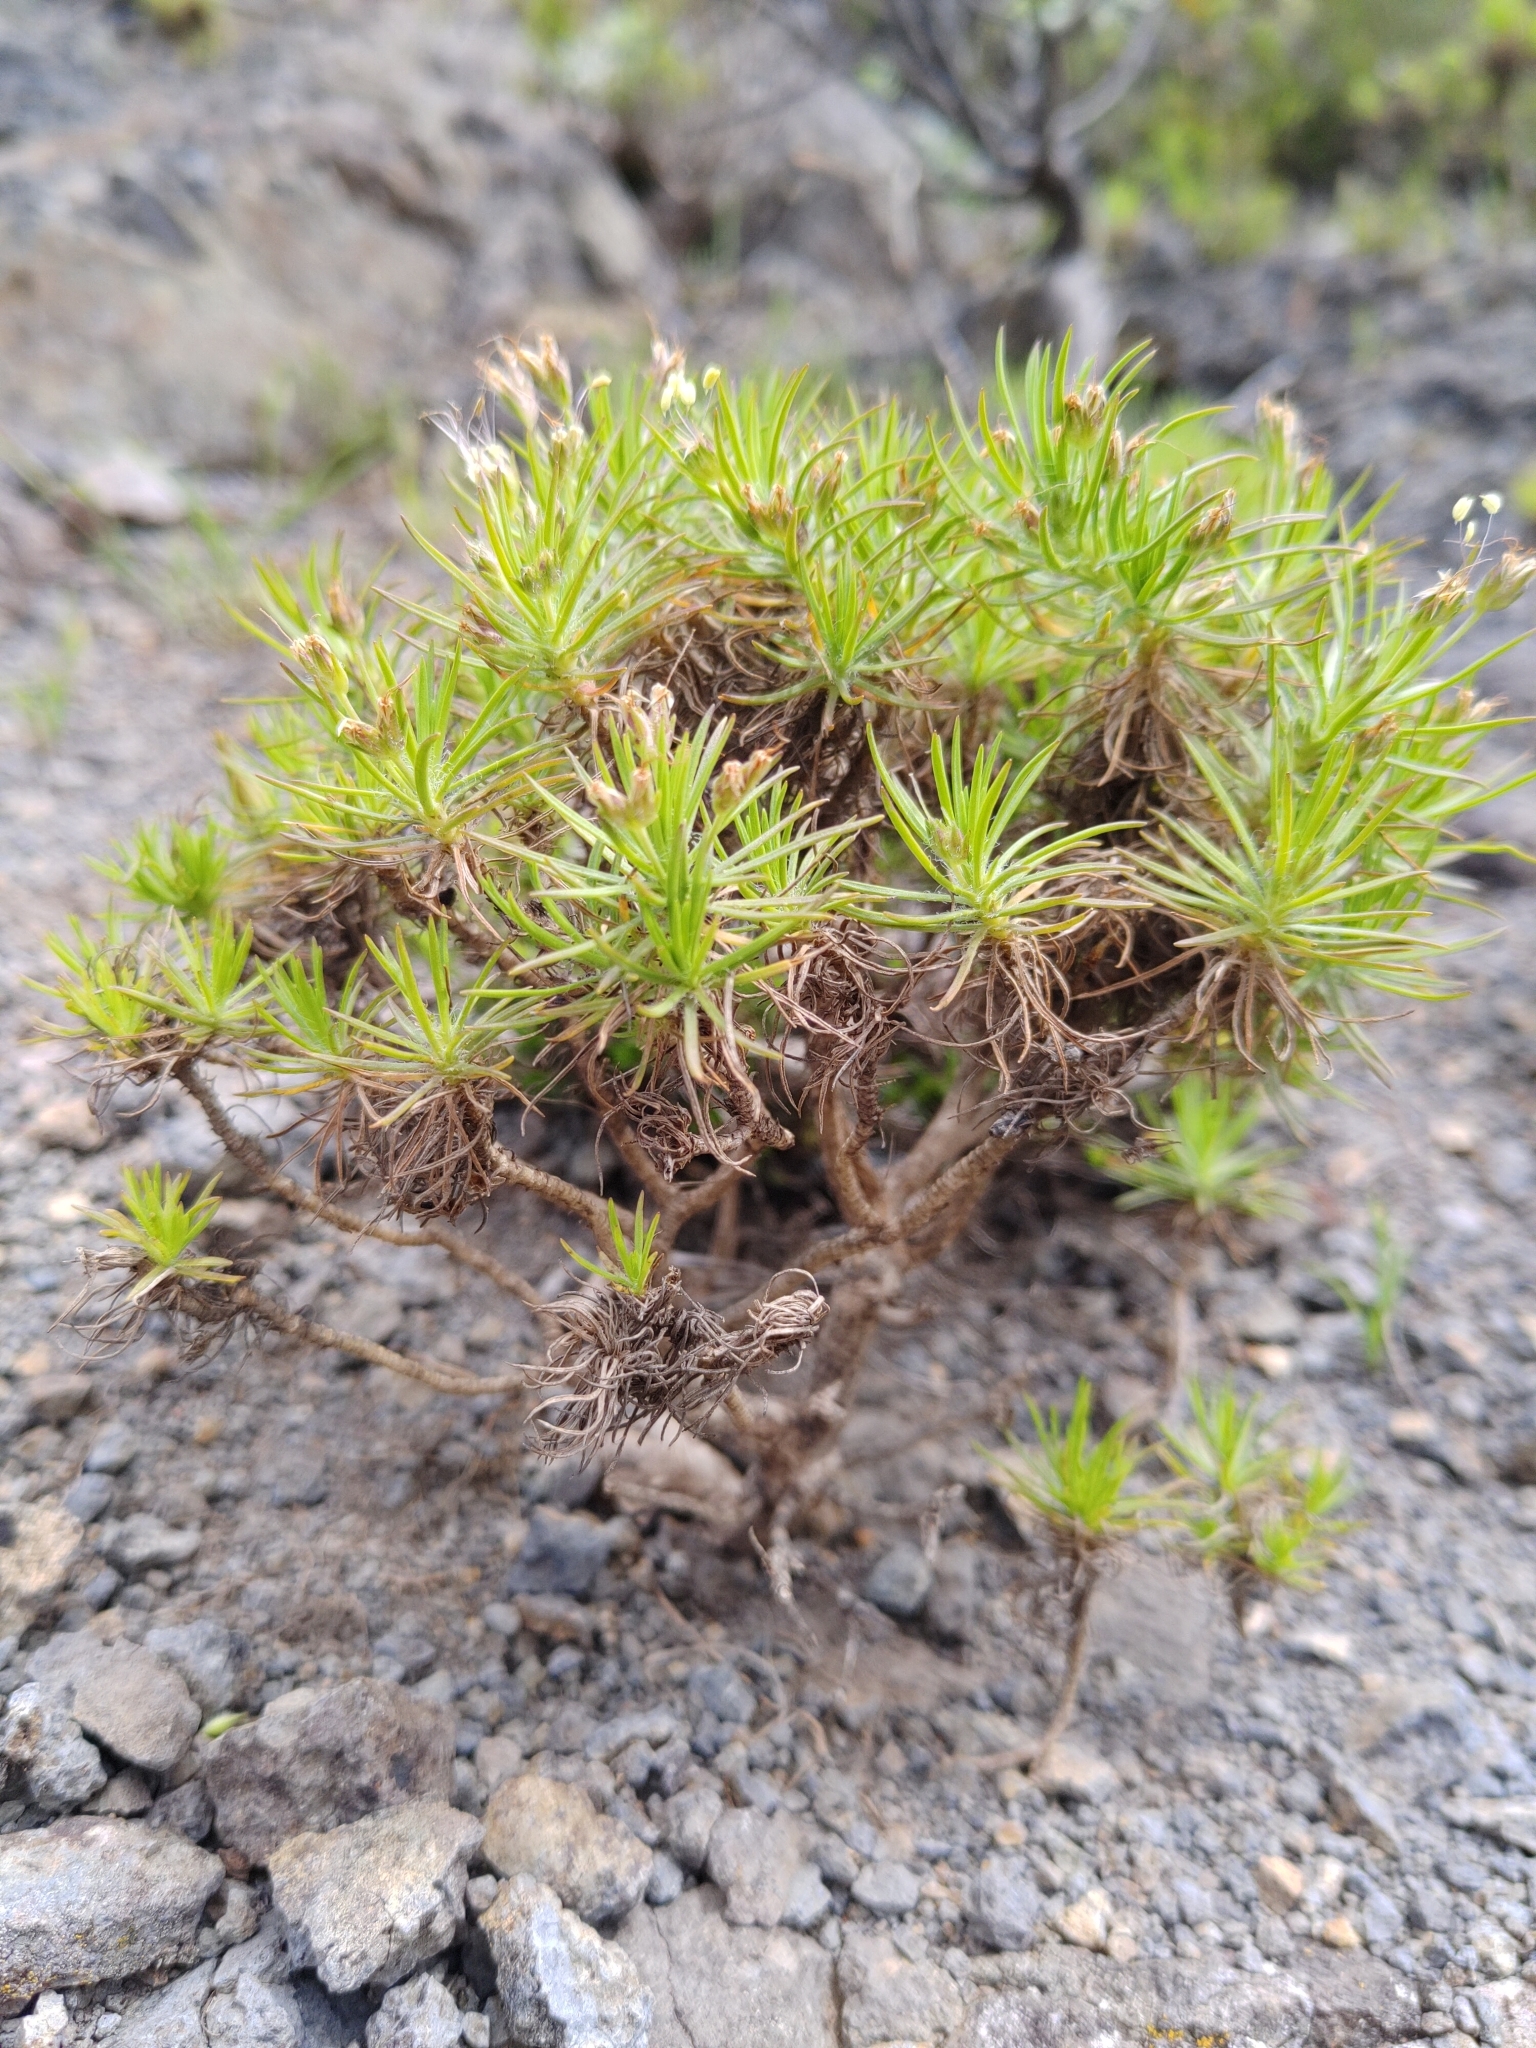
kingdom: Plantae
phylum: Tracheophyta
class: Magnoliopsida
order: Lamiales
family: Plantaginaceae
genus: Plantago
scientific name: Plantago arborescens
